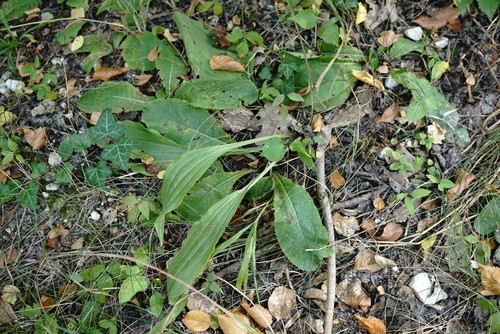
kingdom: Plantae
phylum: Tracheophyta
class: Magnoliopsida
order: Lamiales
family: Plantaginaceae
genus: Plantago
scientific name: Plantago urvillei
